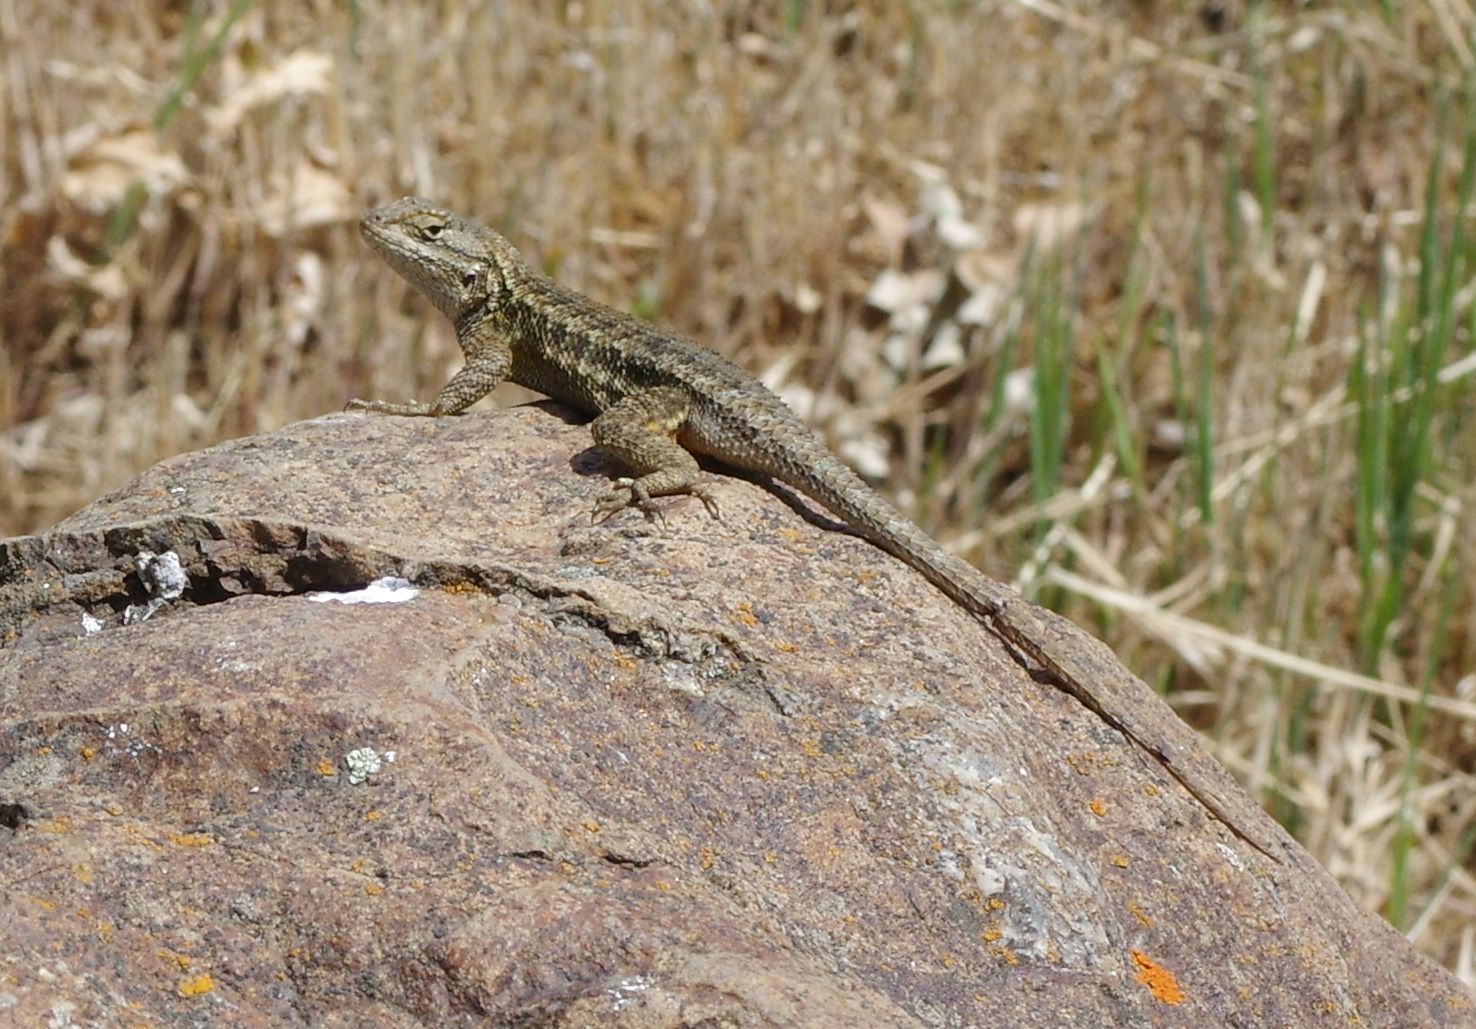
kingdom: Animalia
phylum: Chordata
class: Squamata
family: Phrynosomatidae
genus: Sceloporus
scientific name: Sceloporus occidentalis
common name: Western fence lizard
